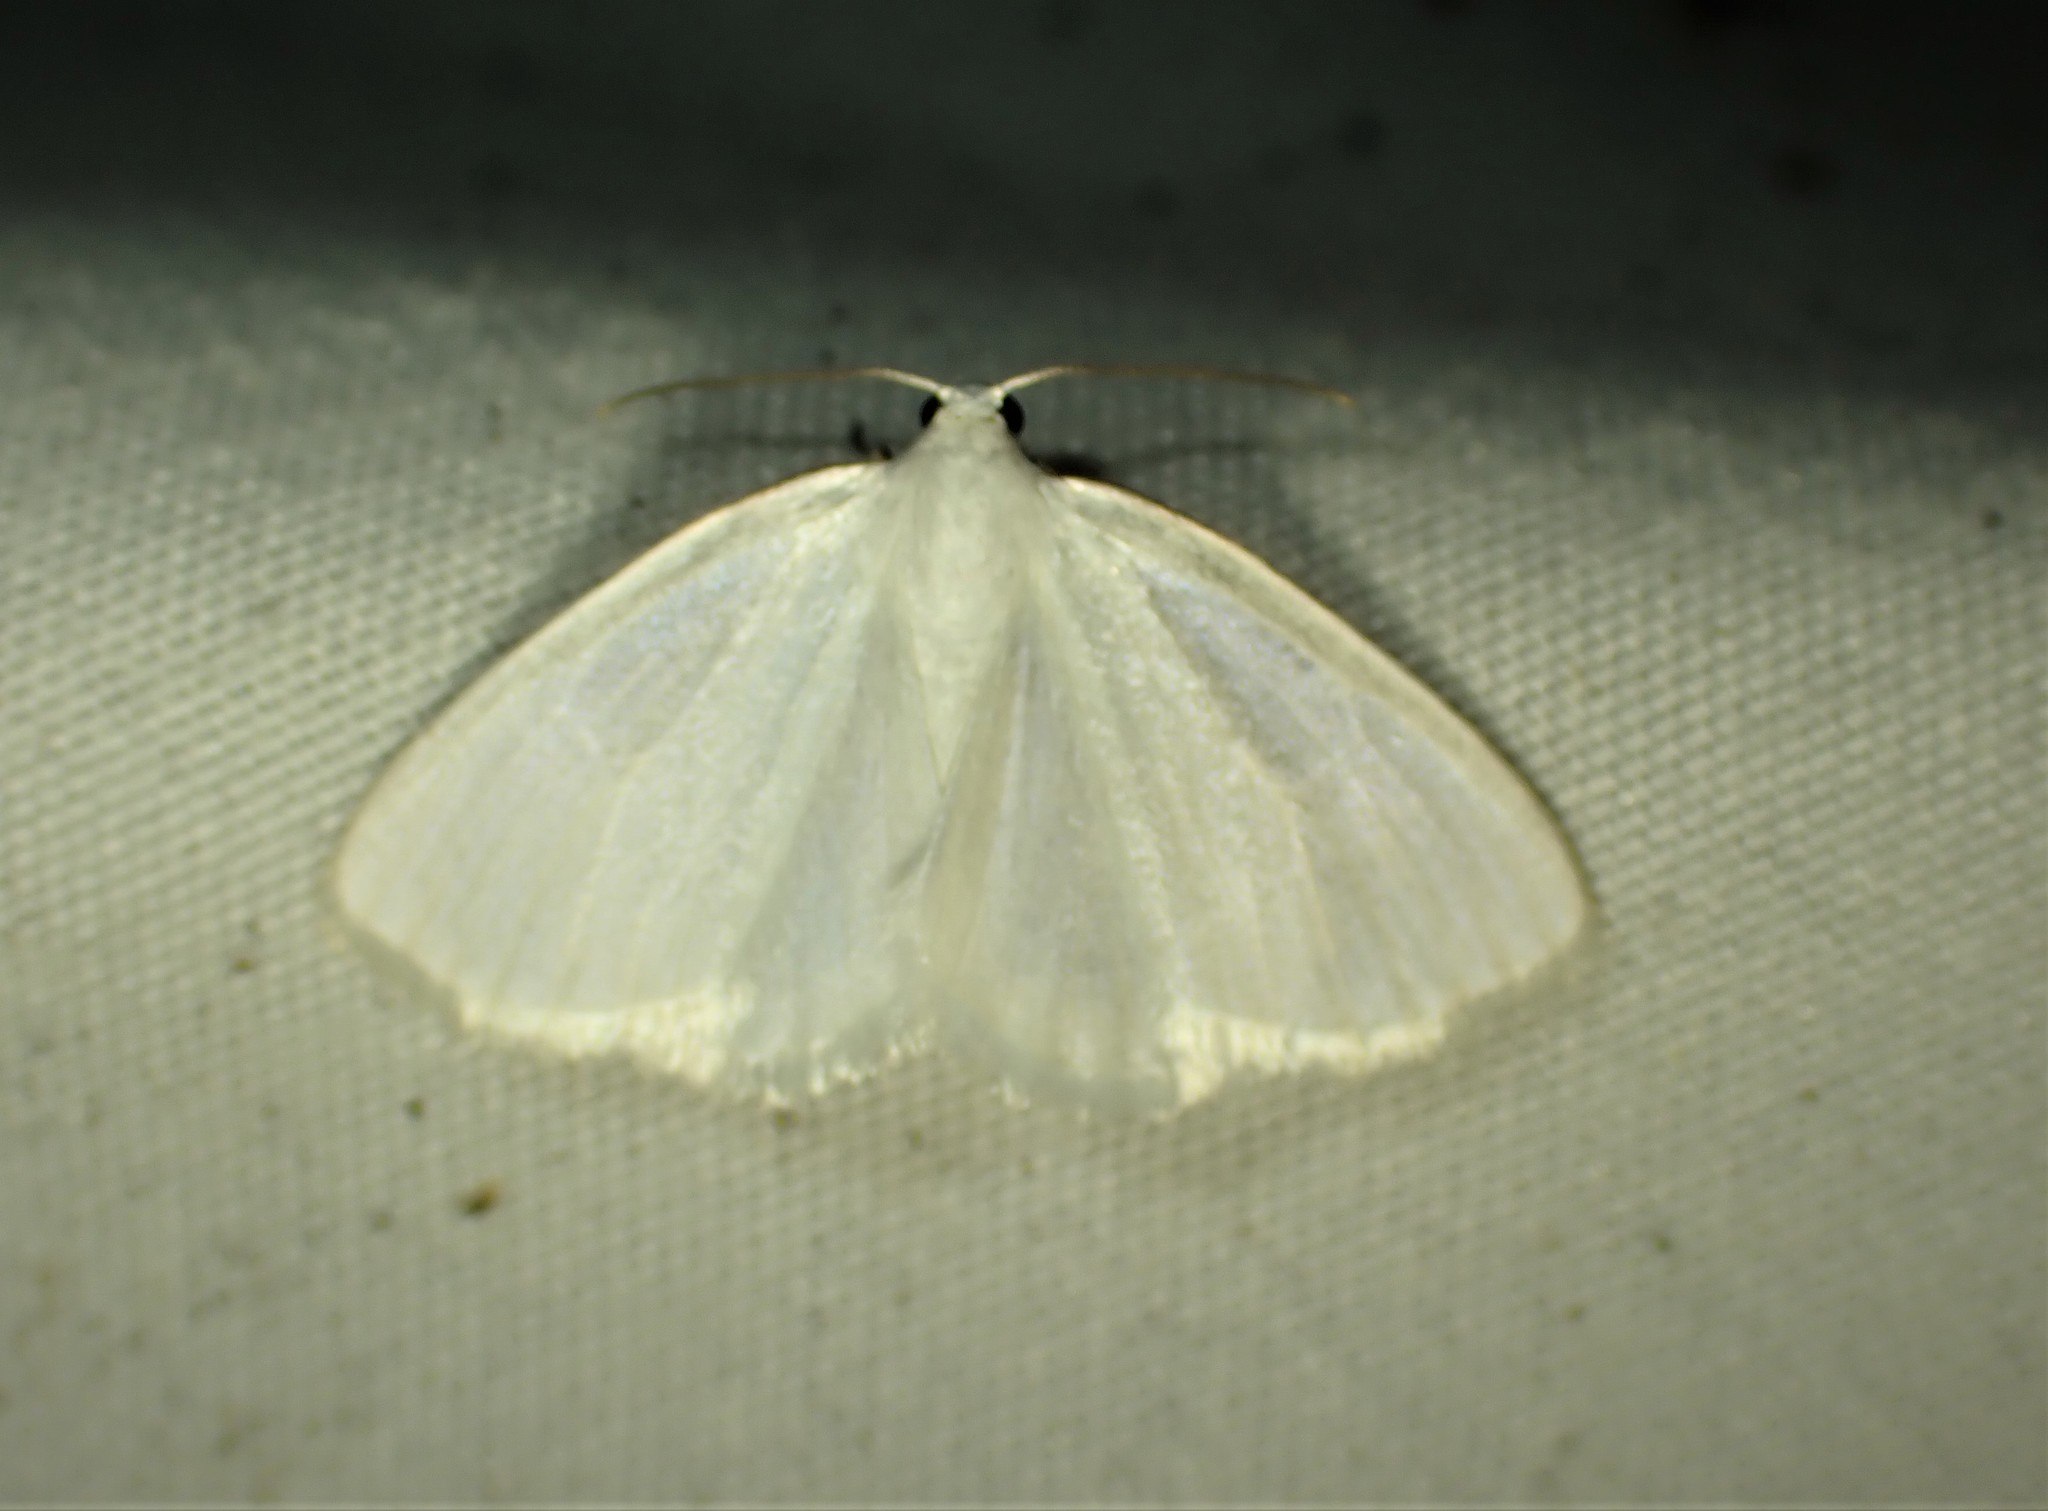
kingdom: Animalia
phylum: Arthropoda
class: Insecta
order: Lepidoptera
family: Geometridae
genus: Lomographa
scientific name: Lomographa vestaliata
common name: White spring moth
